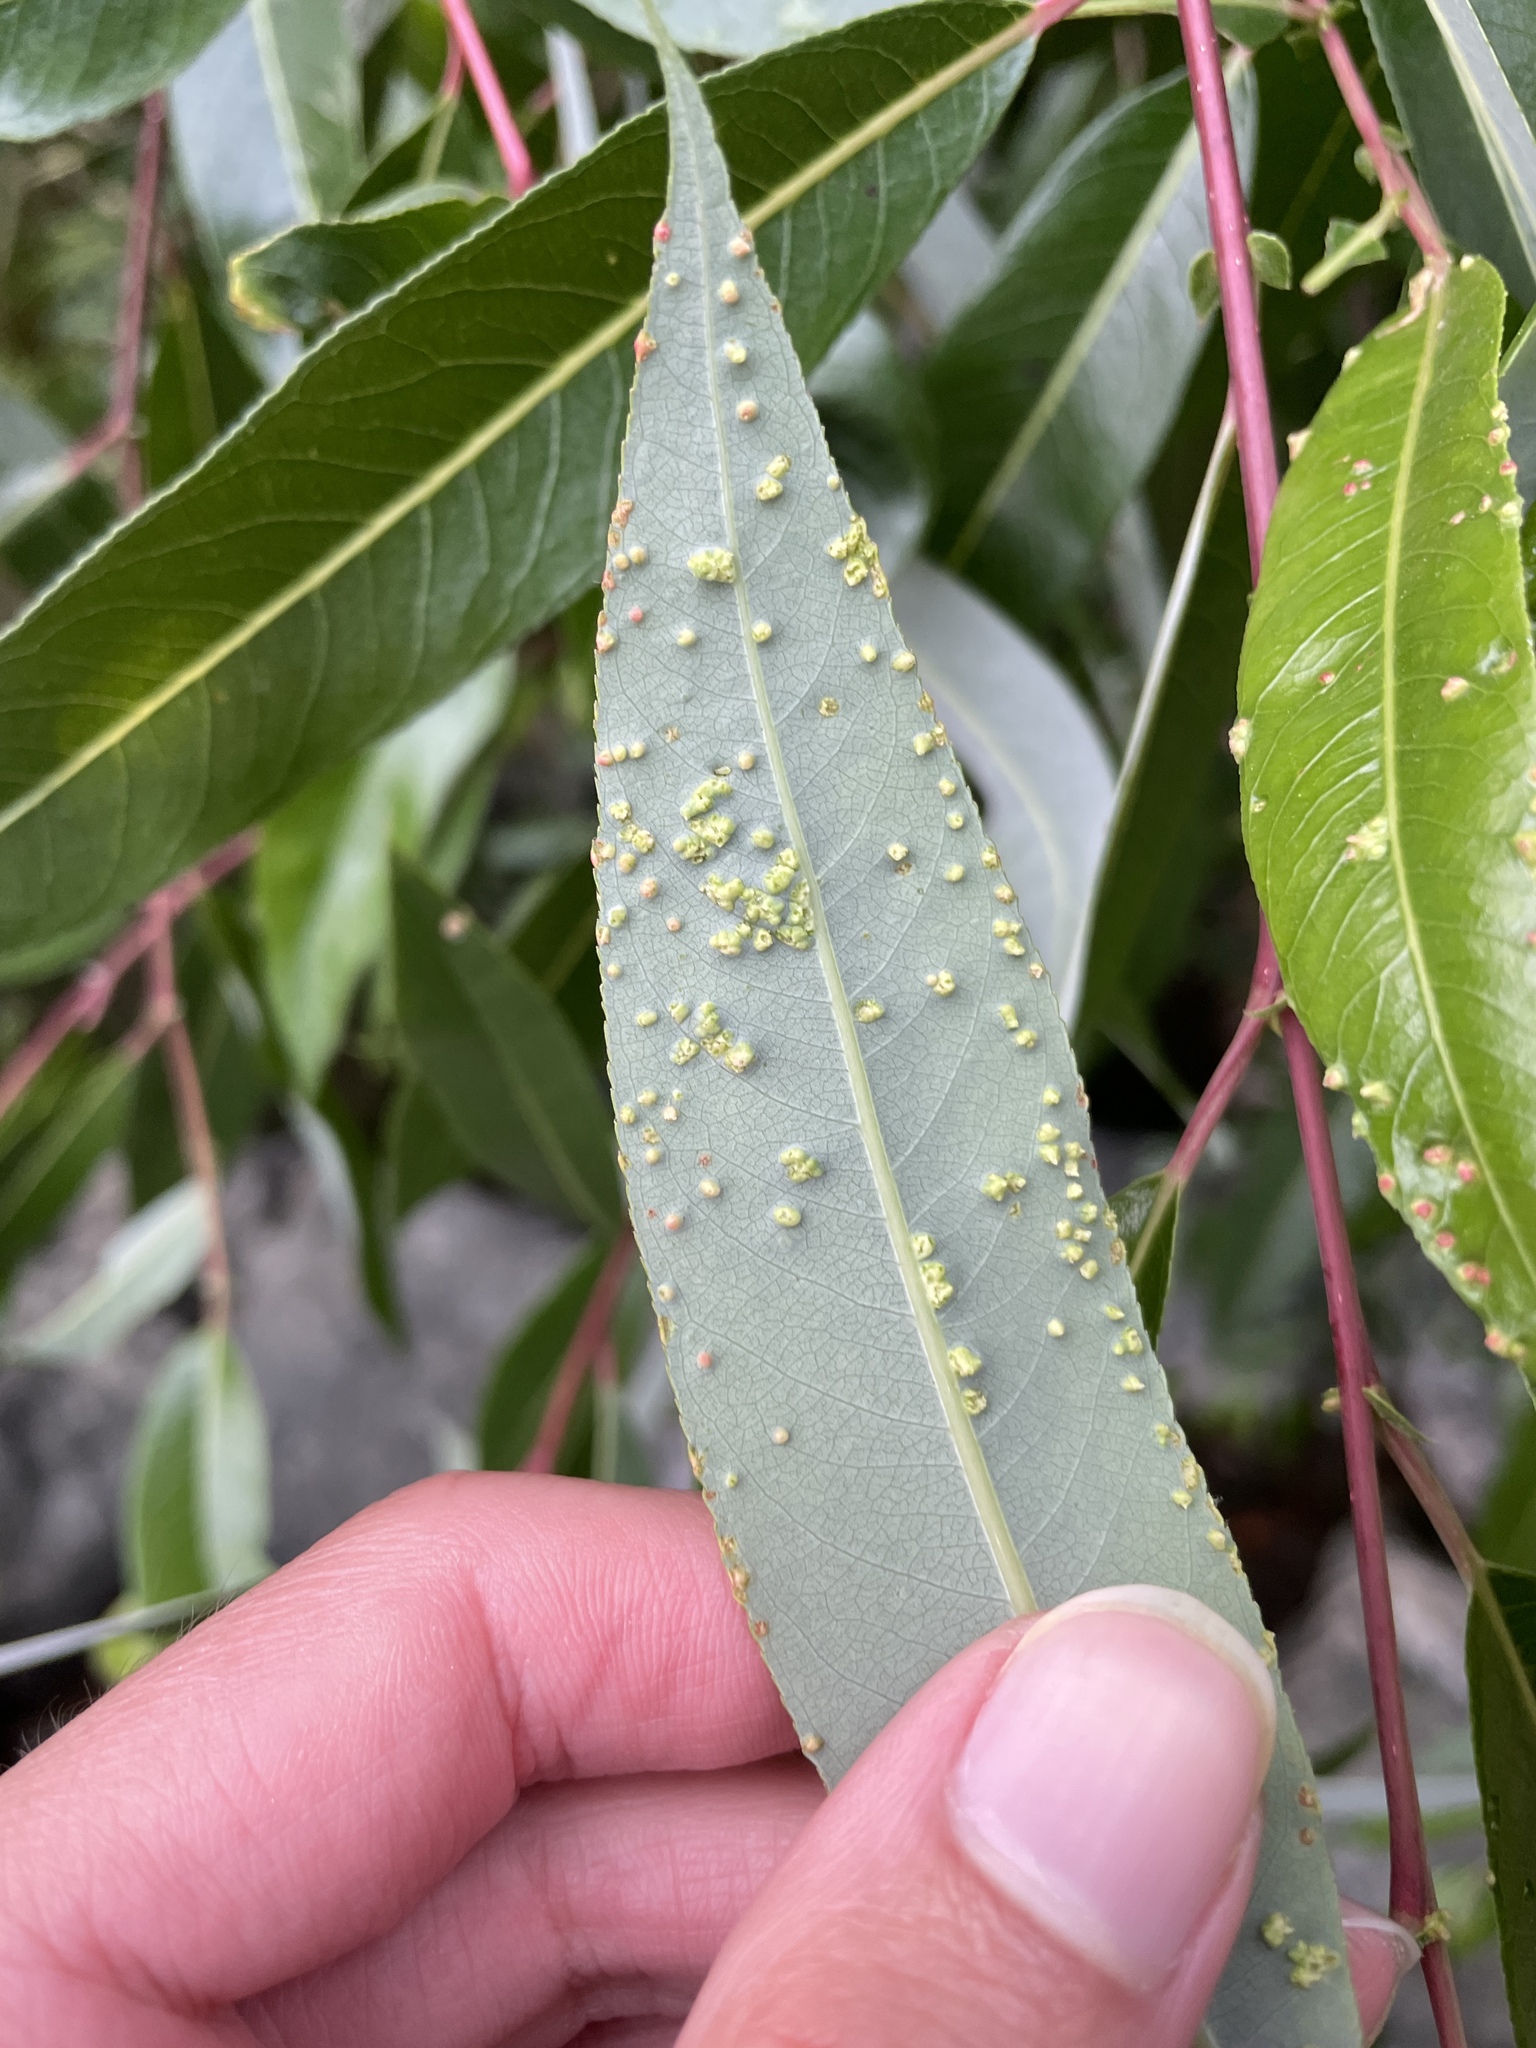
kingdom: Animalia
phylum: Arthropoda
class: Arachnida
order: Trombidiformes
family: Eriophyidae
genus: Aculus
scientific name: Aculus tetanothrix
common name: Willow bead gall mite
